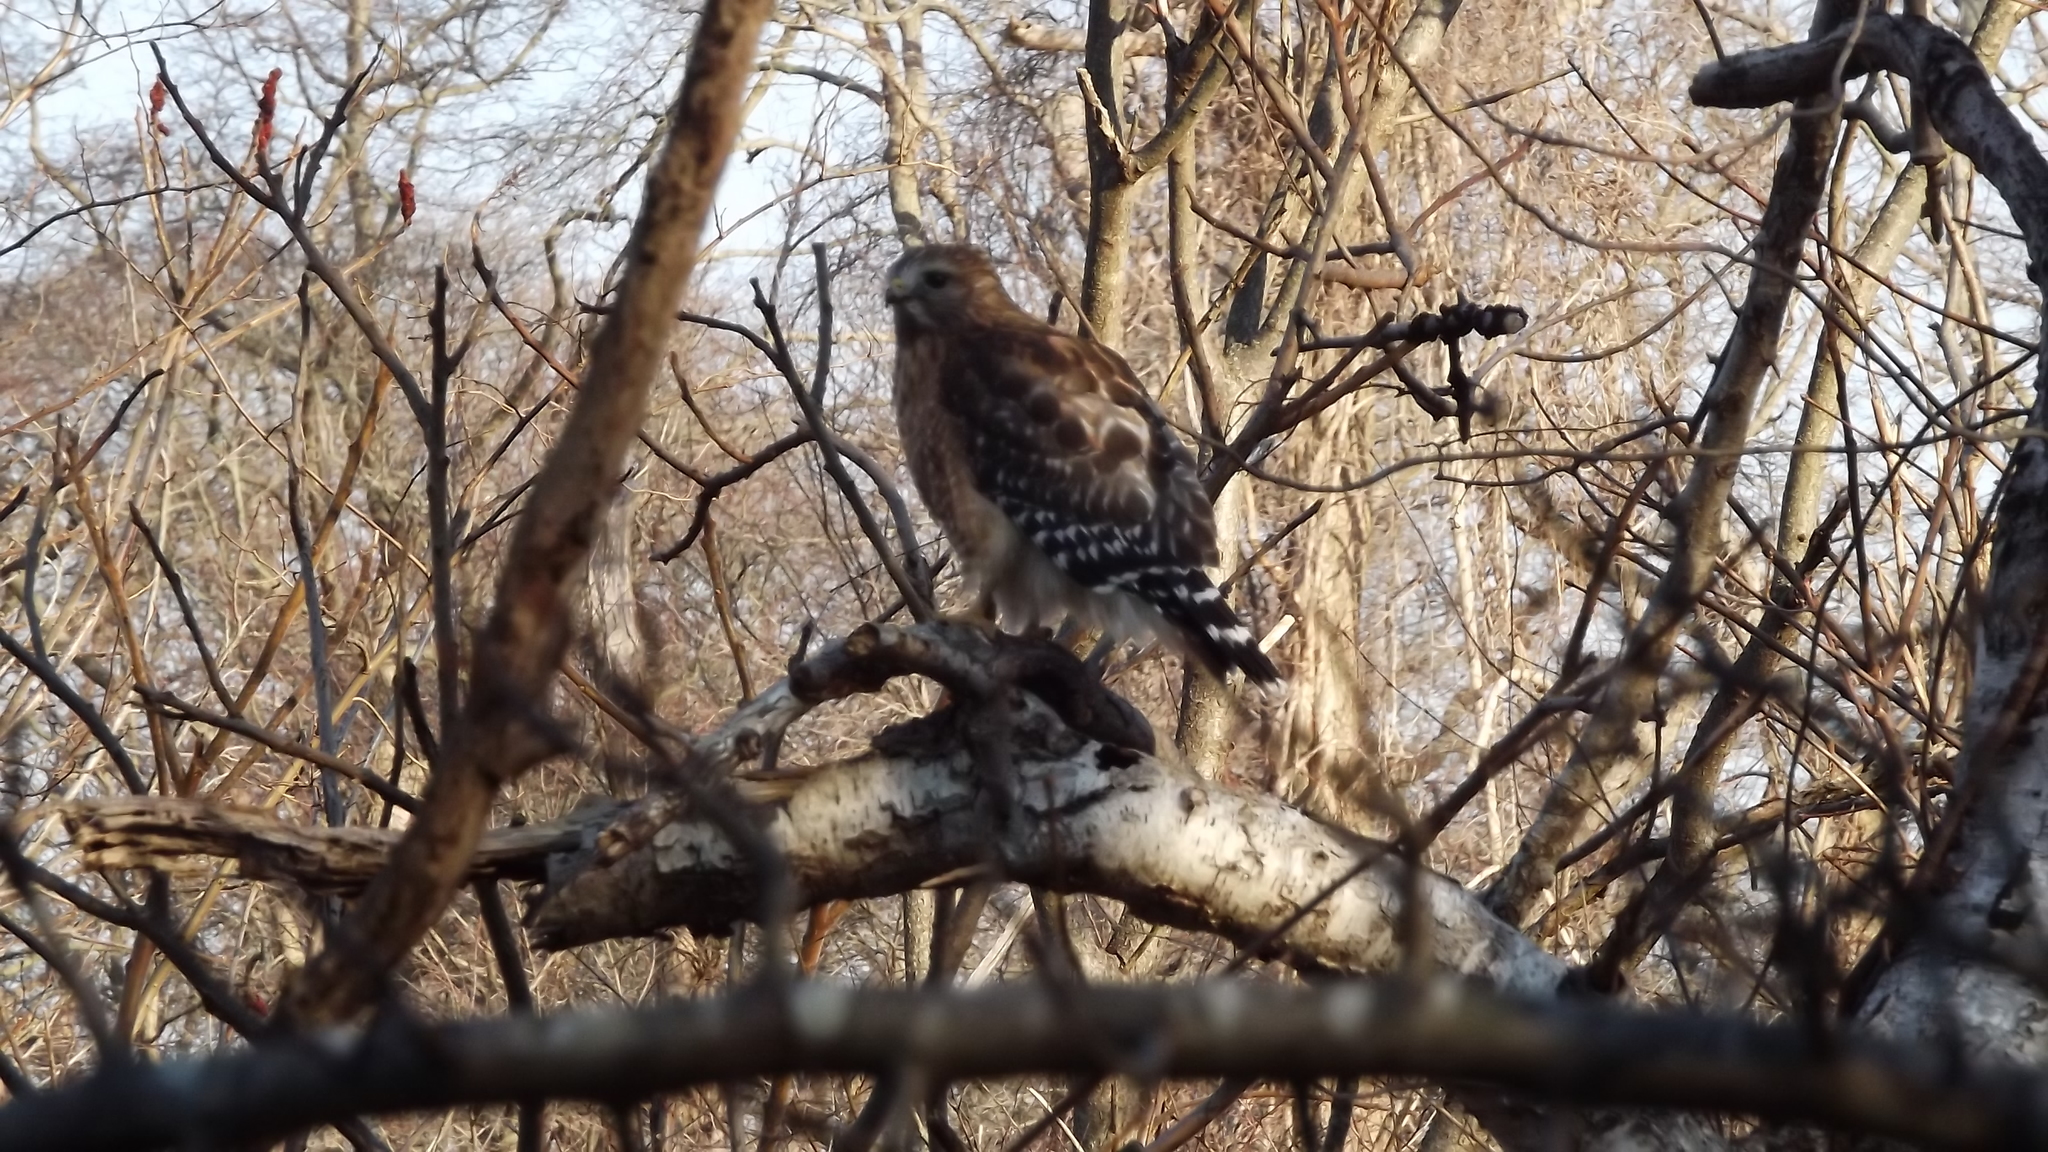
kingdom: Animalia
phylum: Chordata
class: Aves
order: Accipitriformes
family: Accipitridae
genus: Buteo
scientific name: Buteo lineatus
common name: Red-shouldered hawk
